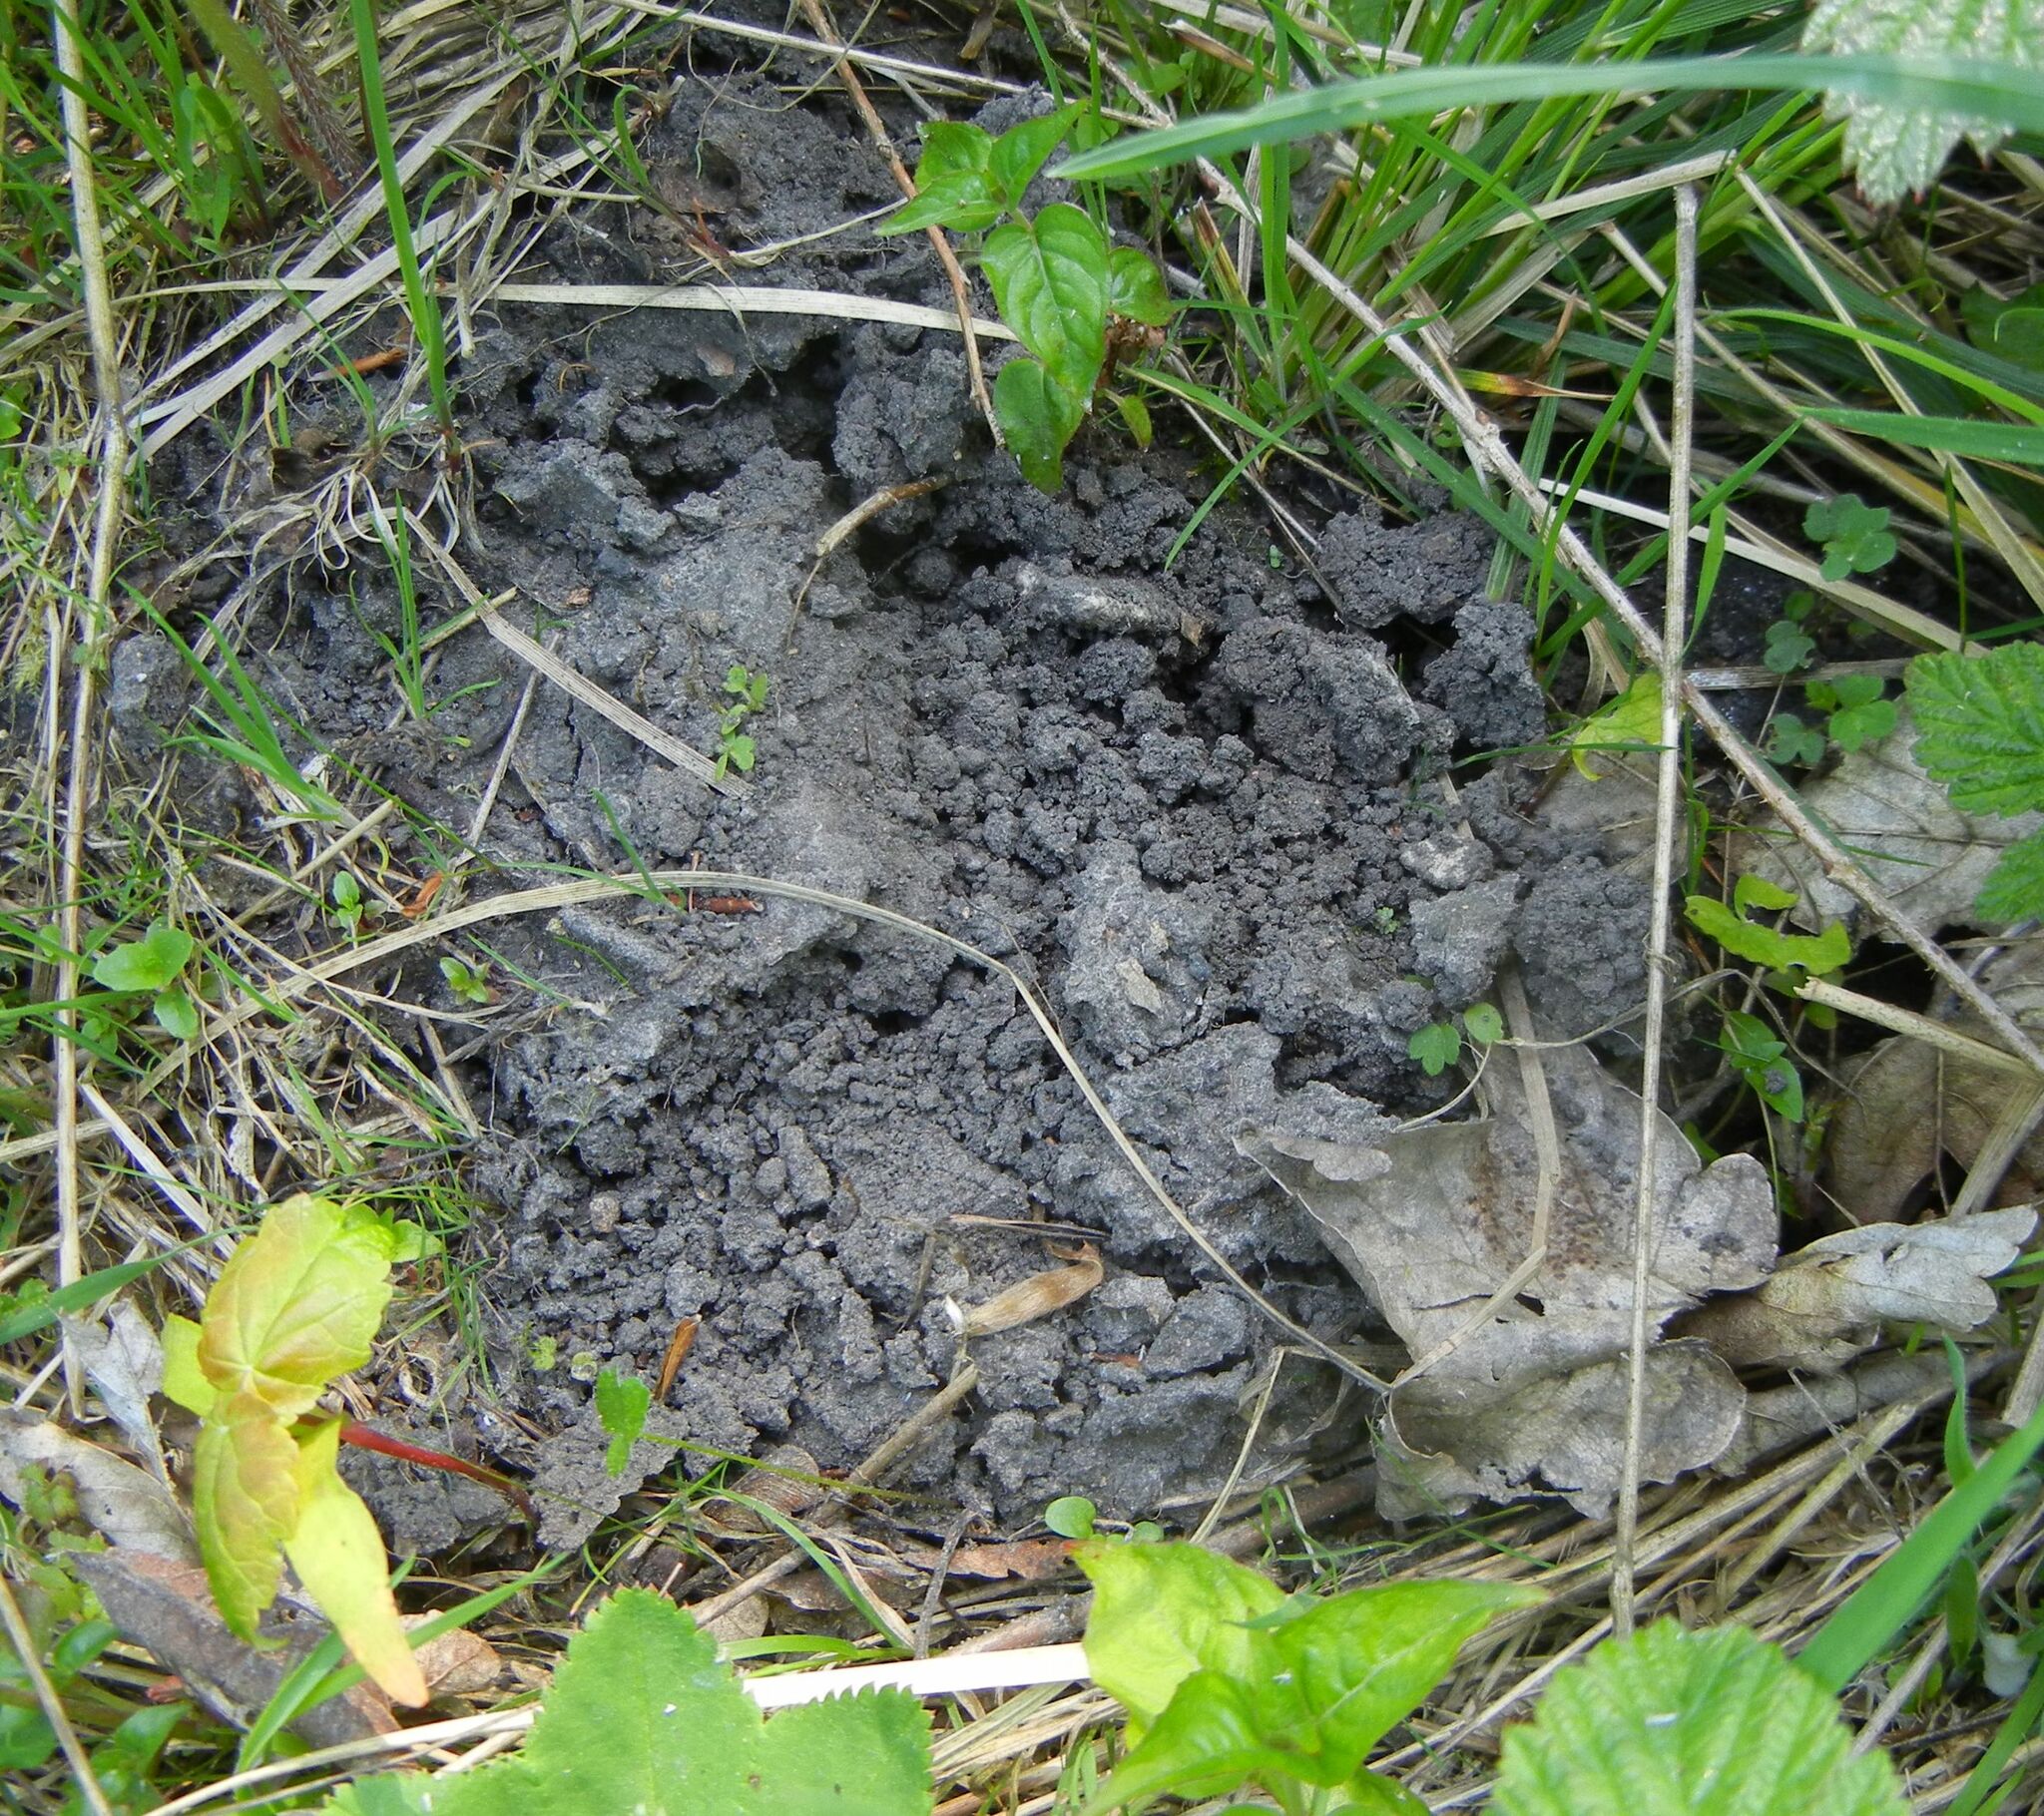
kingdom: Animalia
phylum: Chordata
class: Mammalia
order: Soricomorpha
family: Talpidae
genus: Talpa
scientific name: Talpa europaea
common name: European mole
